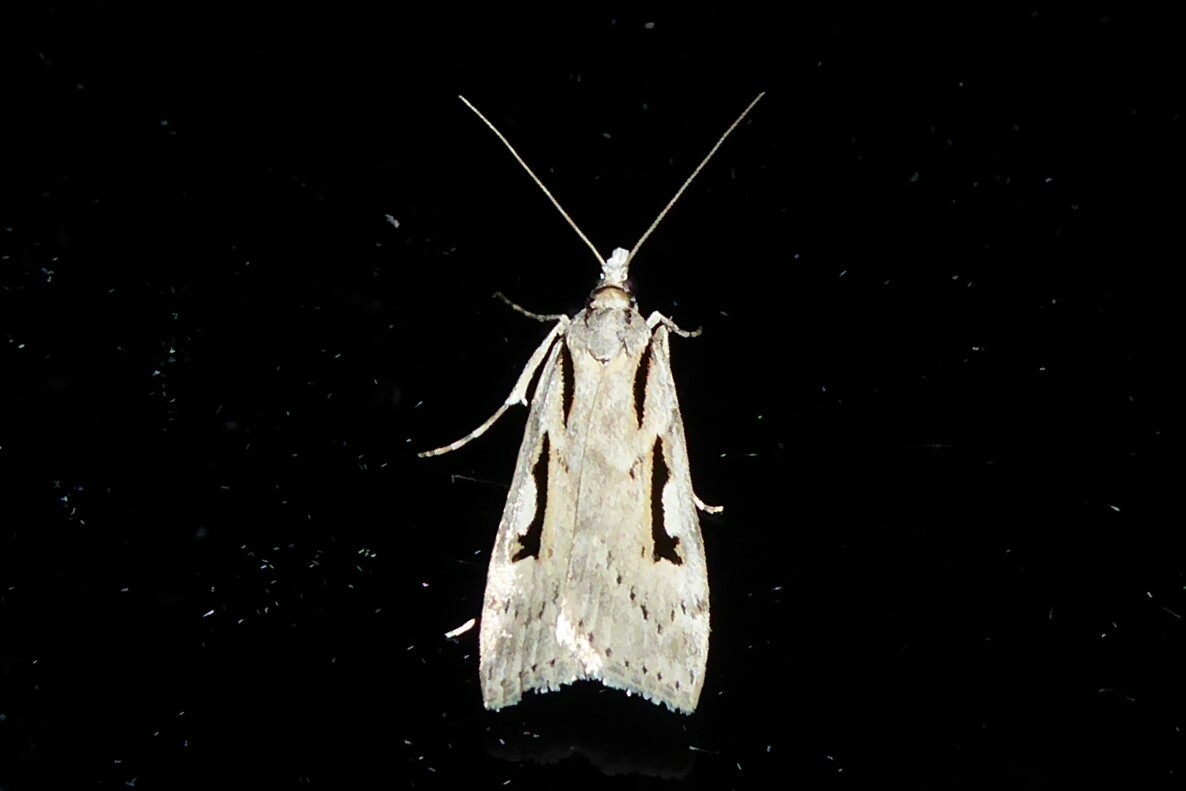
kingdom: Animalia
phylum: Arthropoda
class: Insecta
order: Lepidoptera
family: Crambidae
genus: Scoparia
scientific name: Scoparia rotuellus
